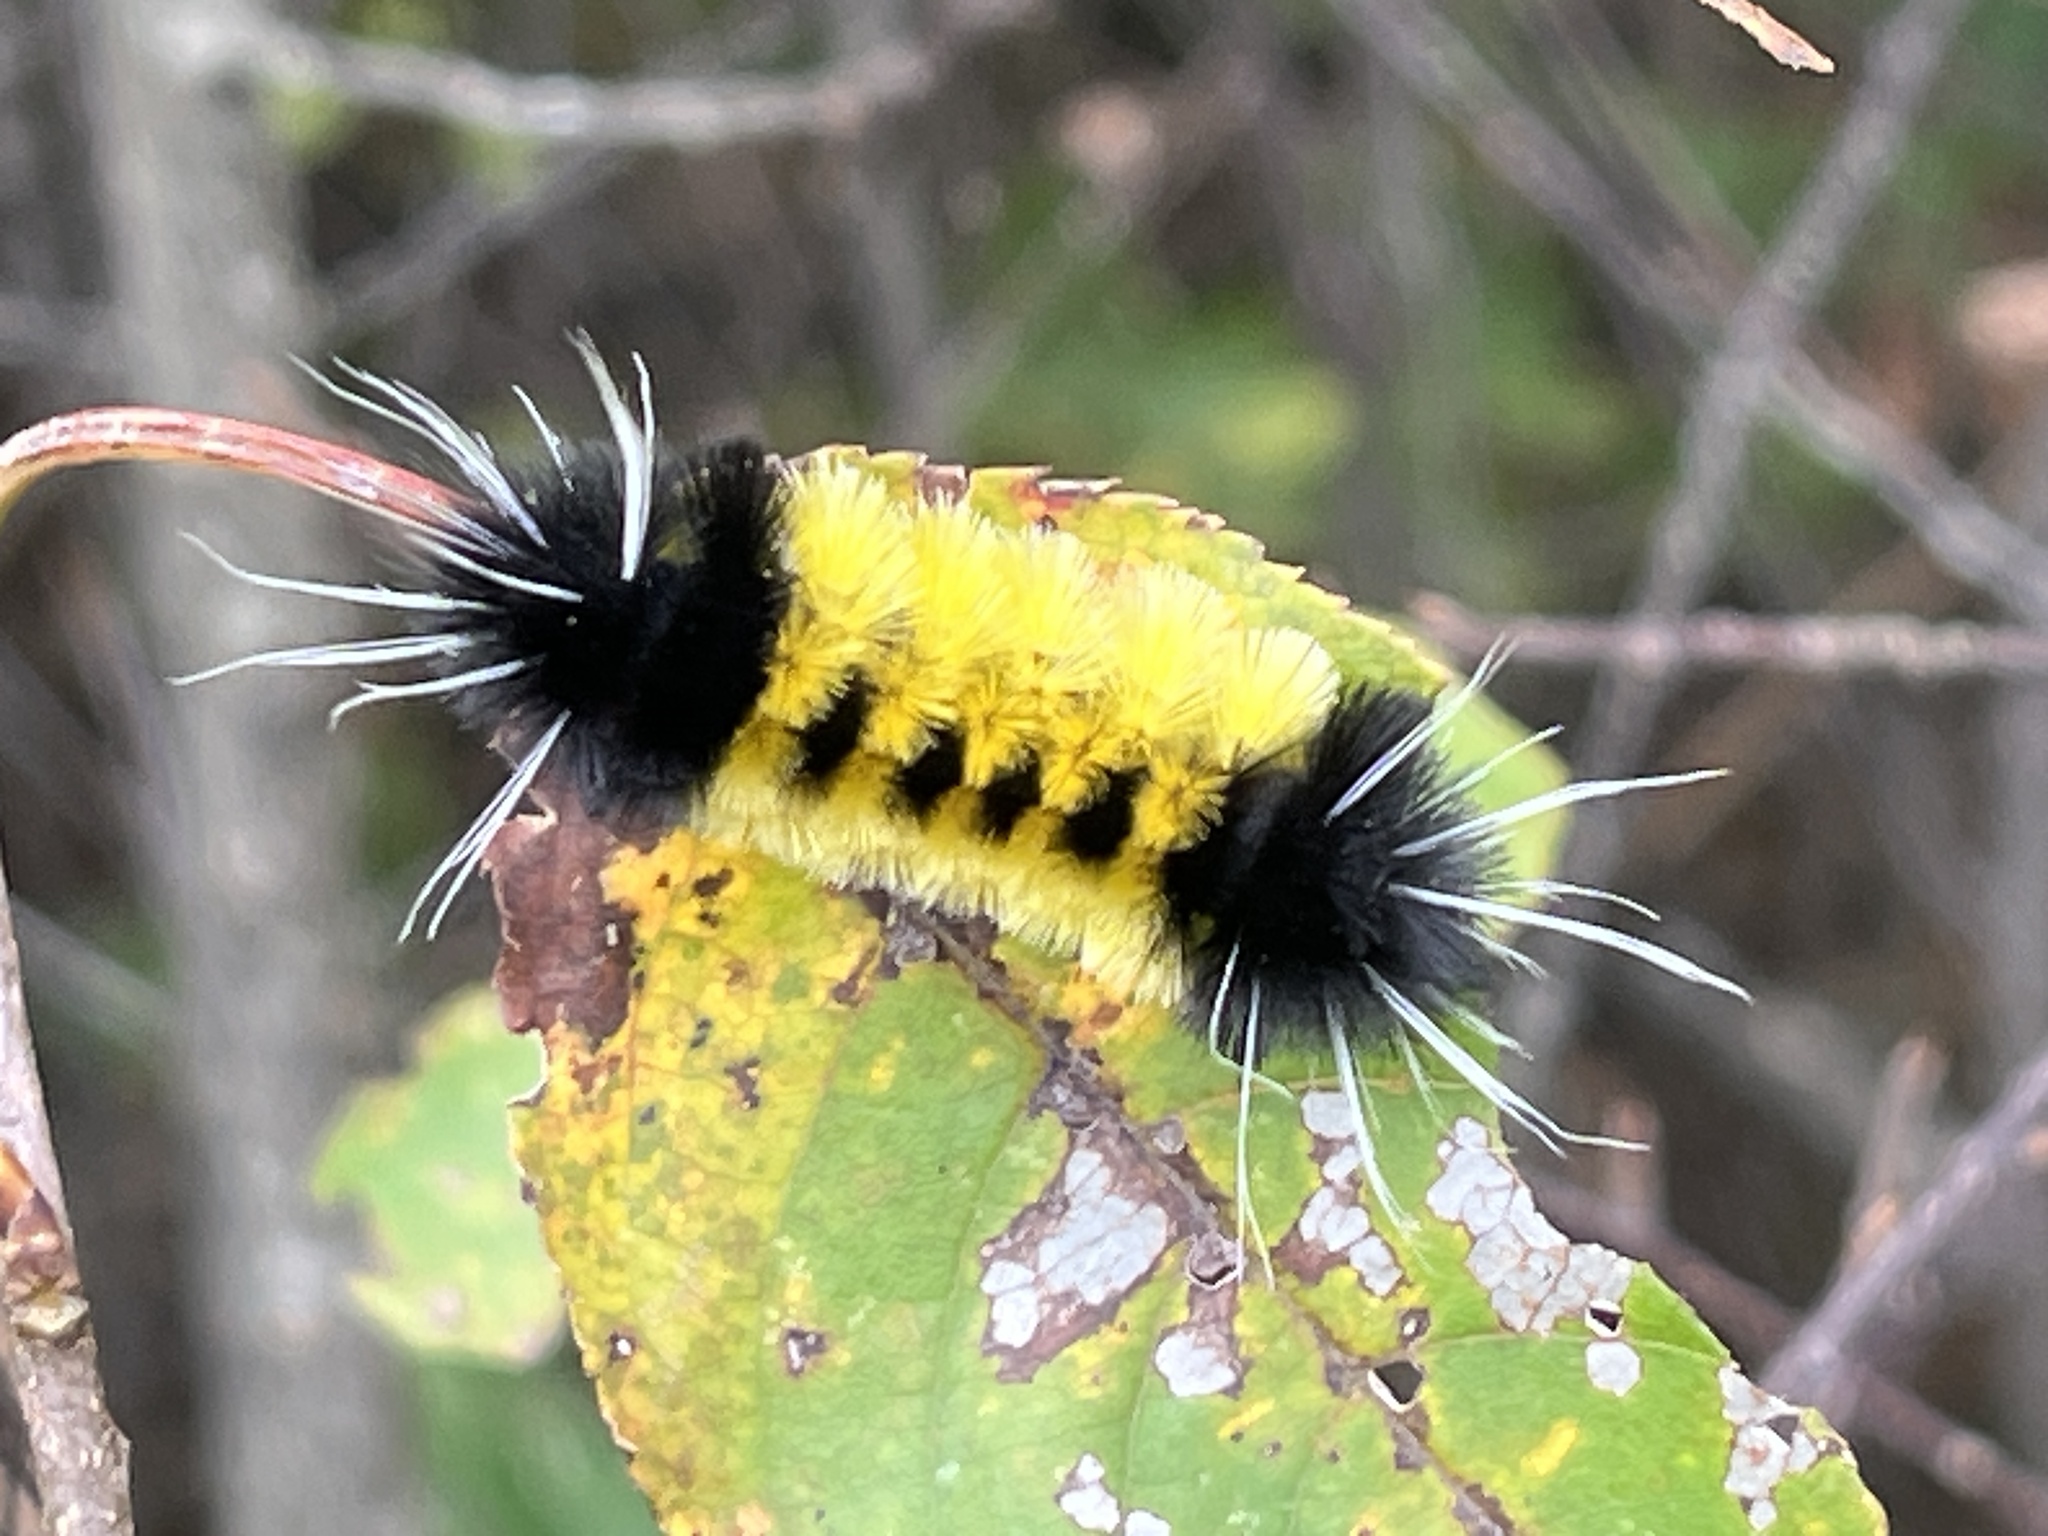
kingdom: Animalia
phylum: Arthropoda
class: Insecta
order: Lepidoptera
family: Erebidae
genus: Lophocampa
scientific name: Lophocampa maculata
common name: Spotted tussock moth
